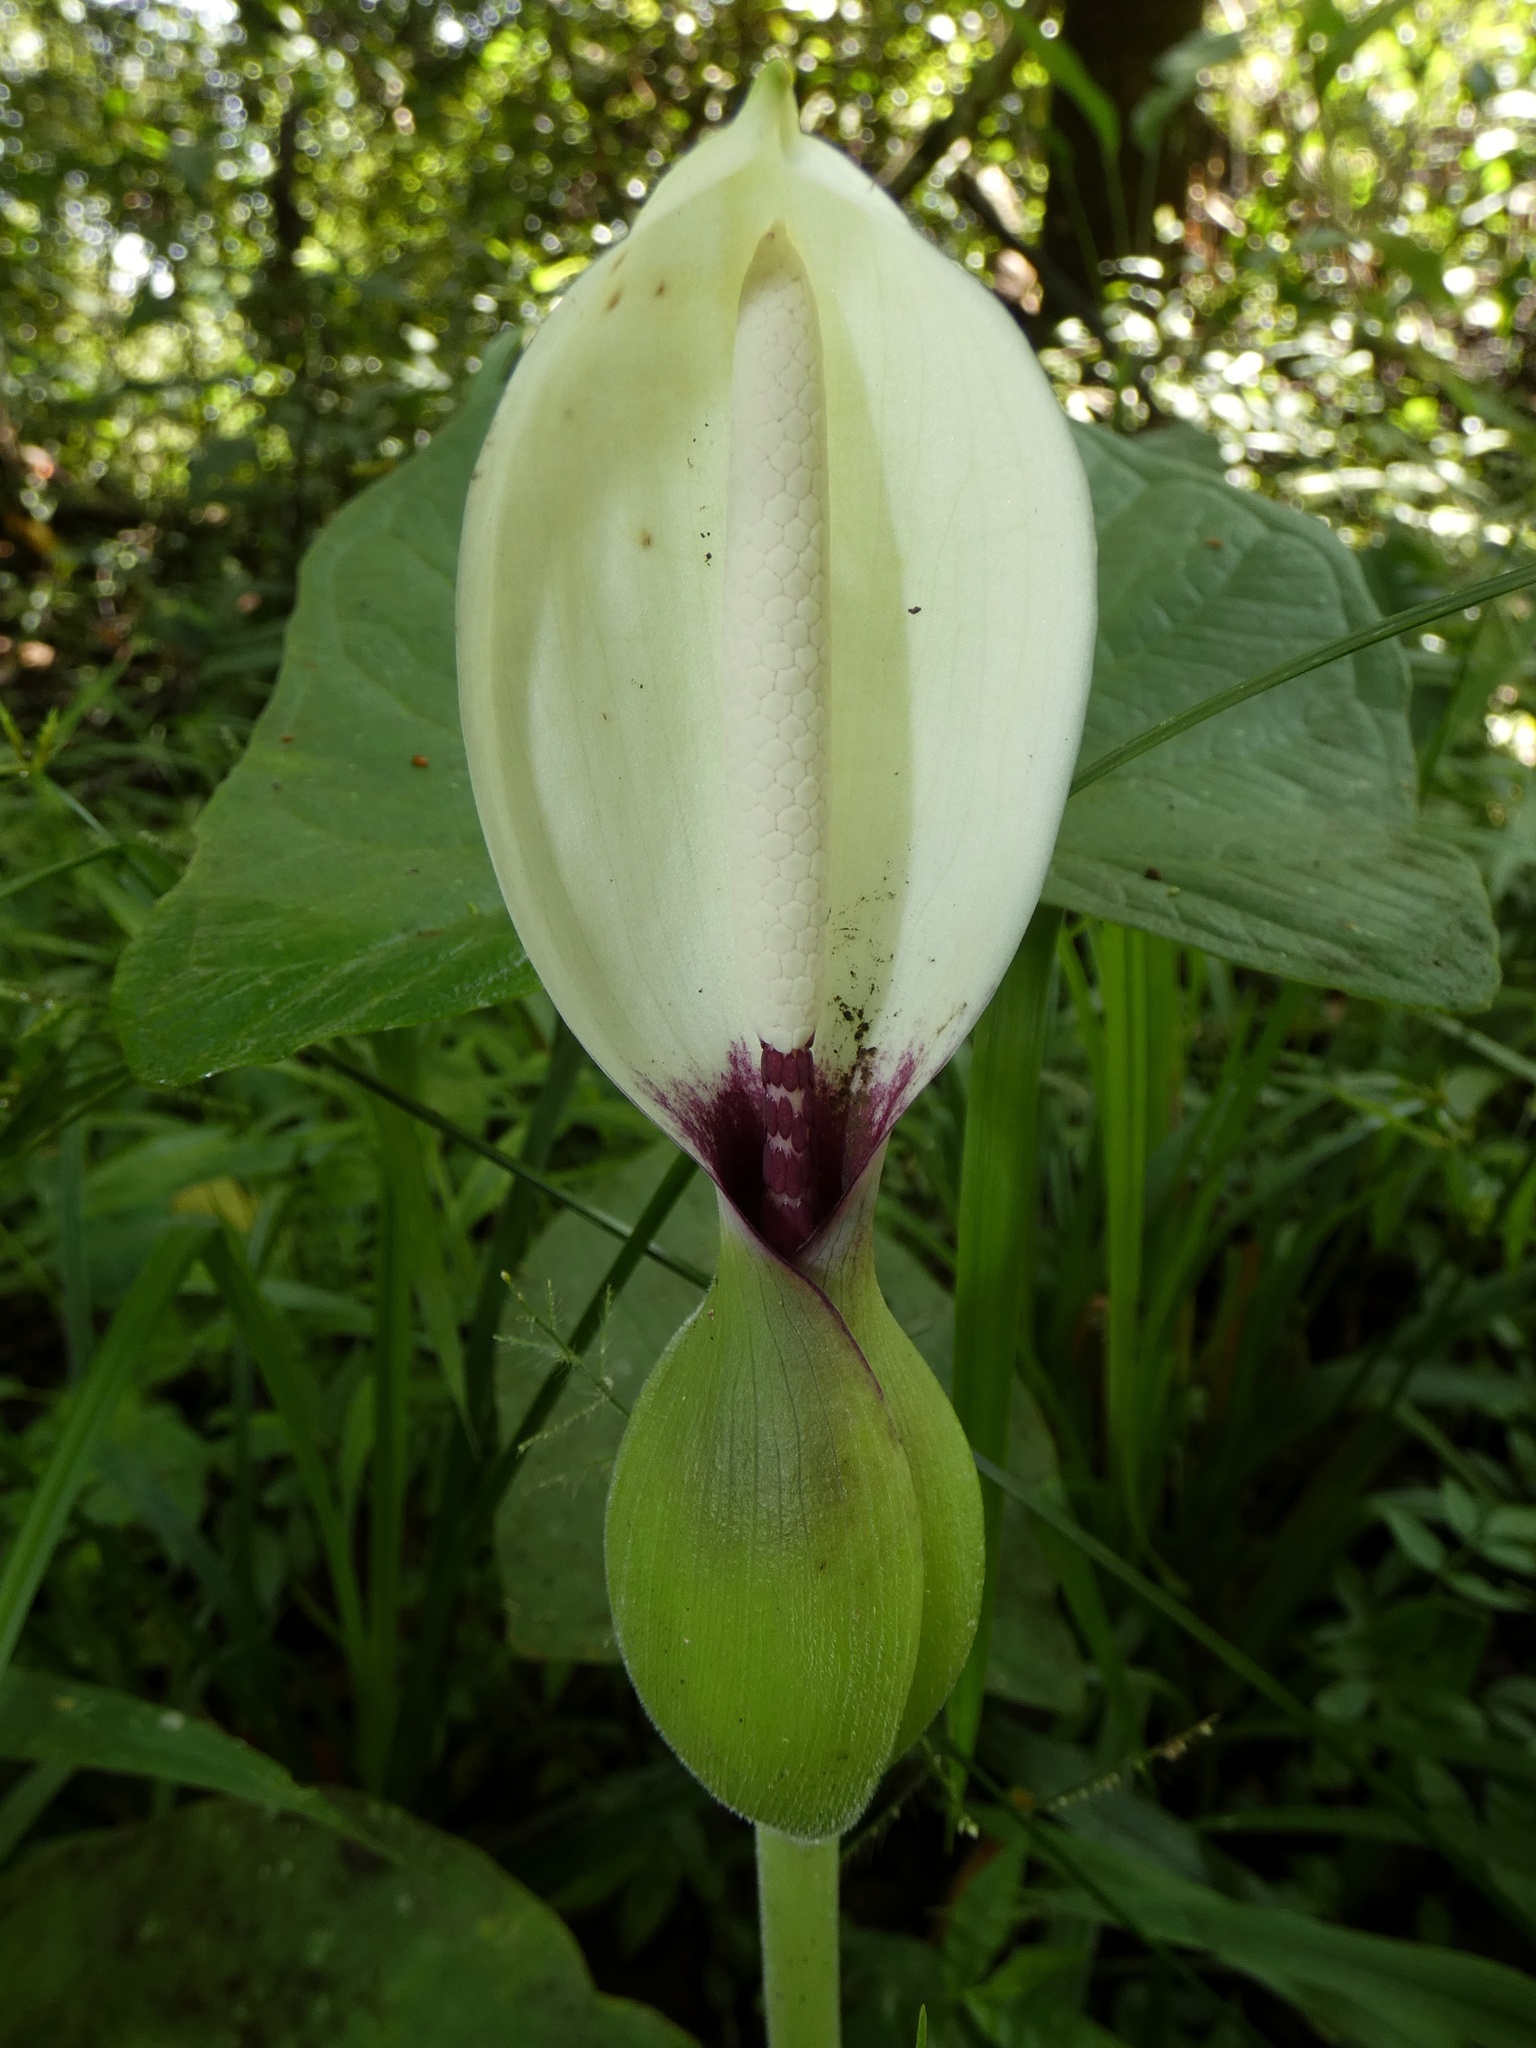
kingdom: Plantae
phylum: Tracheophyta
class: Liliopsida
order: Alismatales
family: Araceae
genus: Xanthosoma
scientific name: Xanthosoma mexicanum
